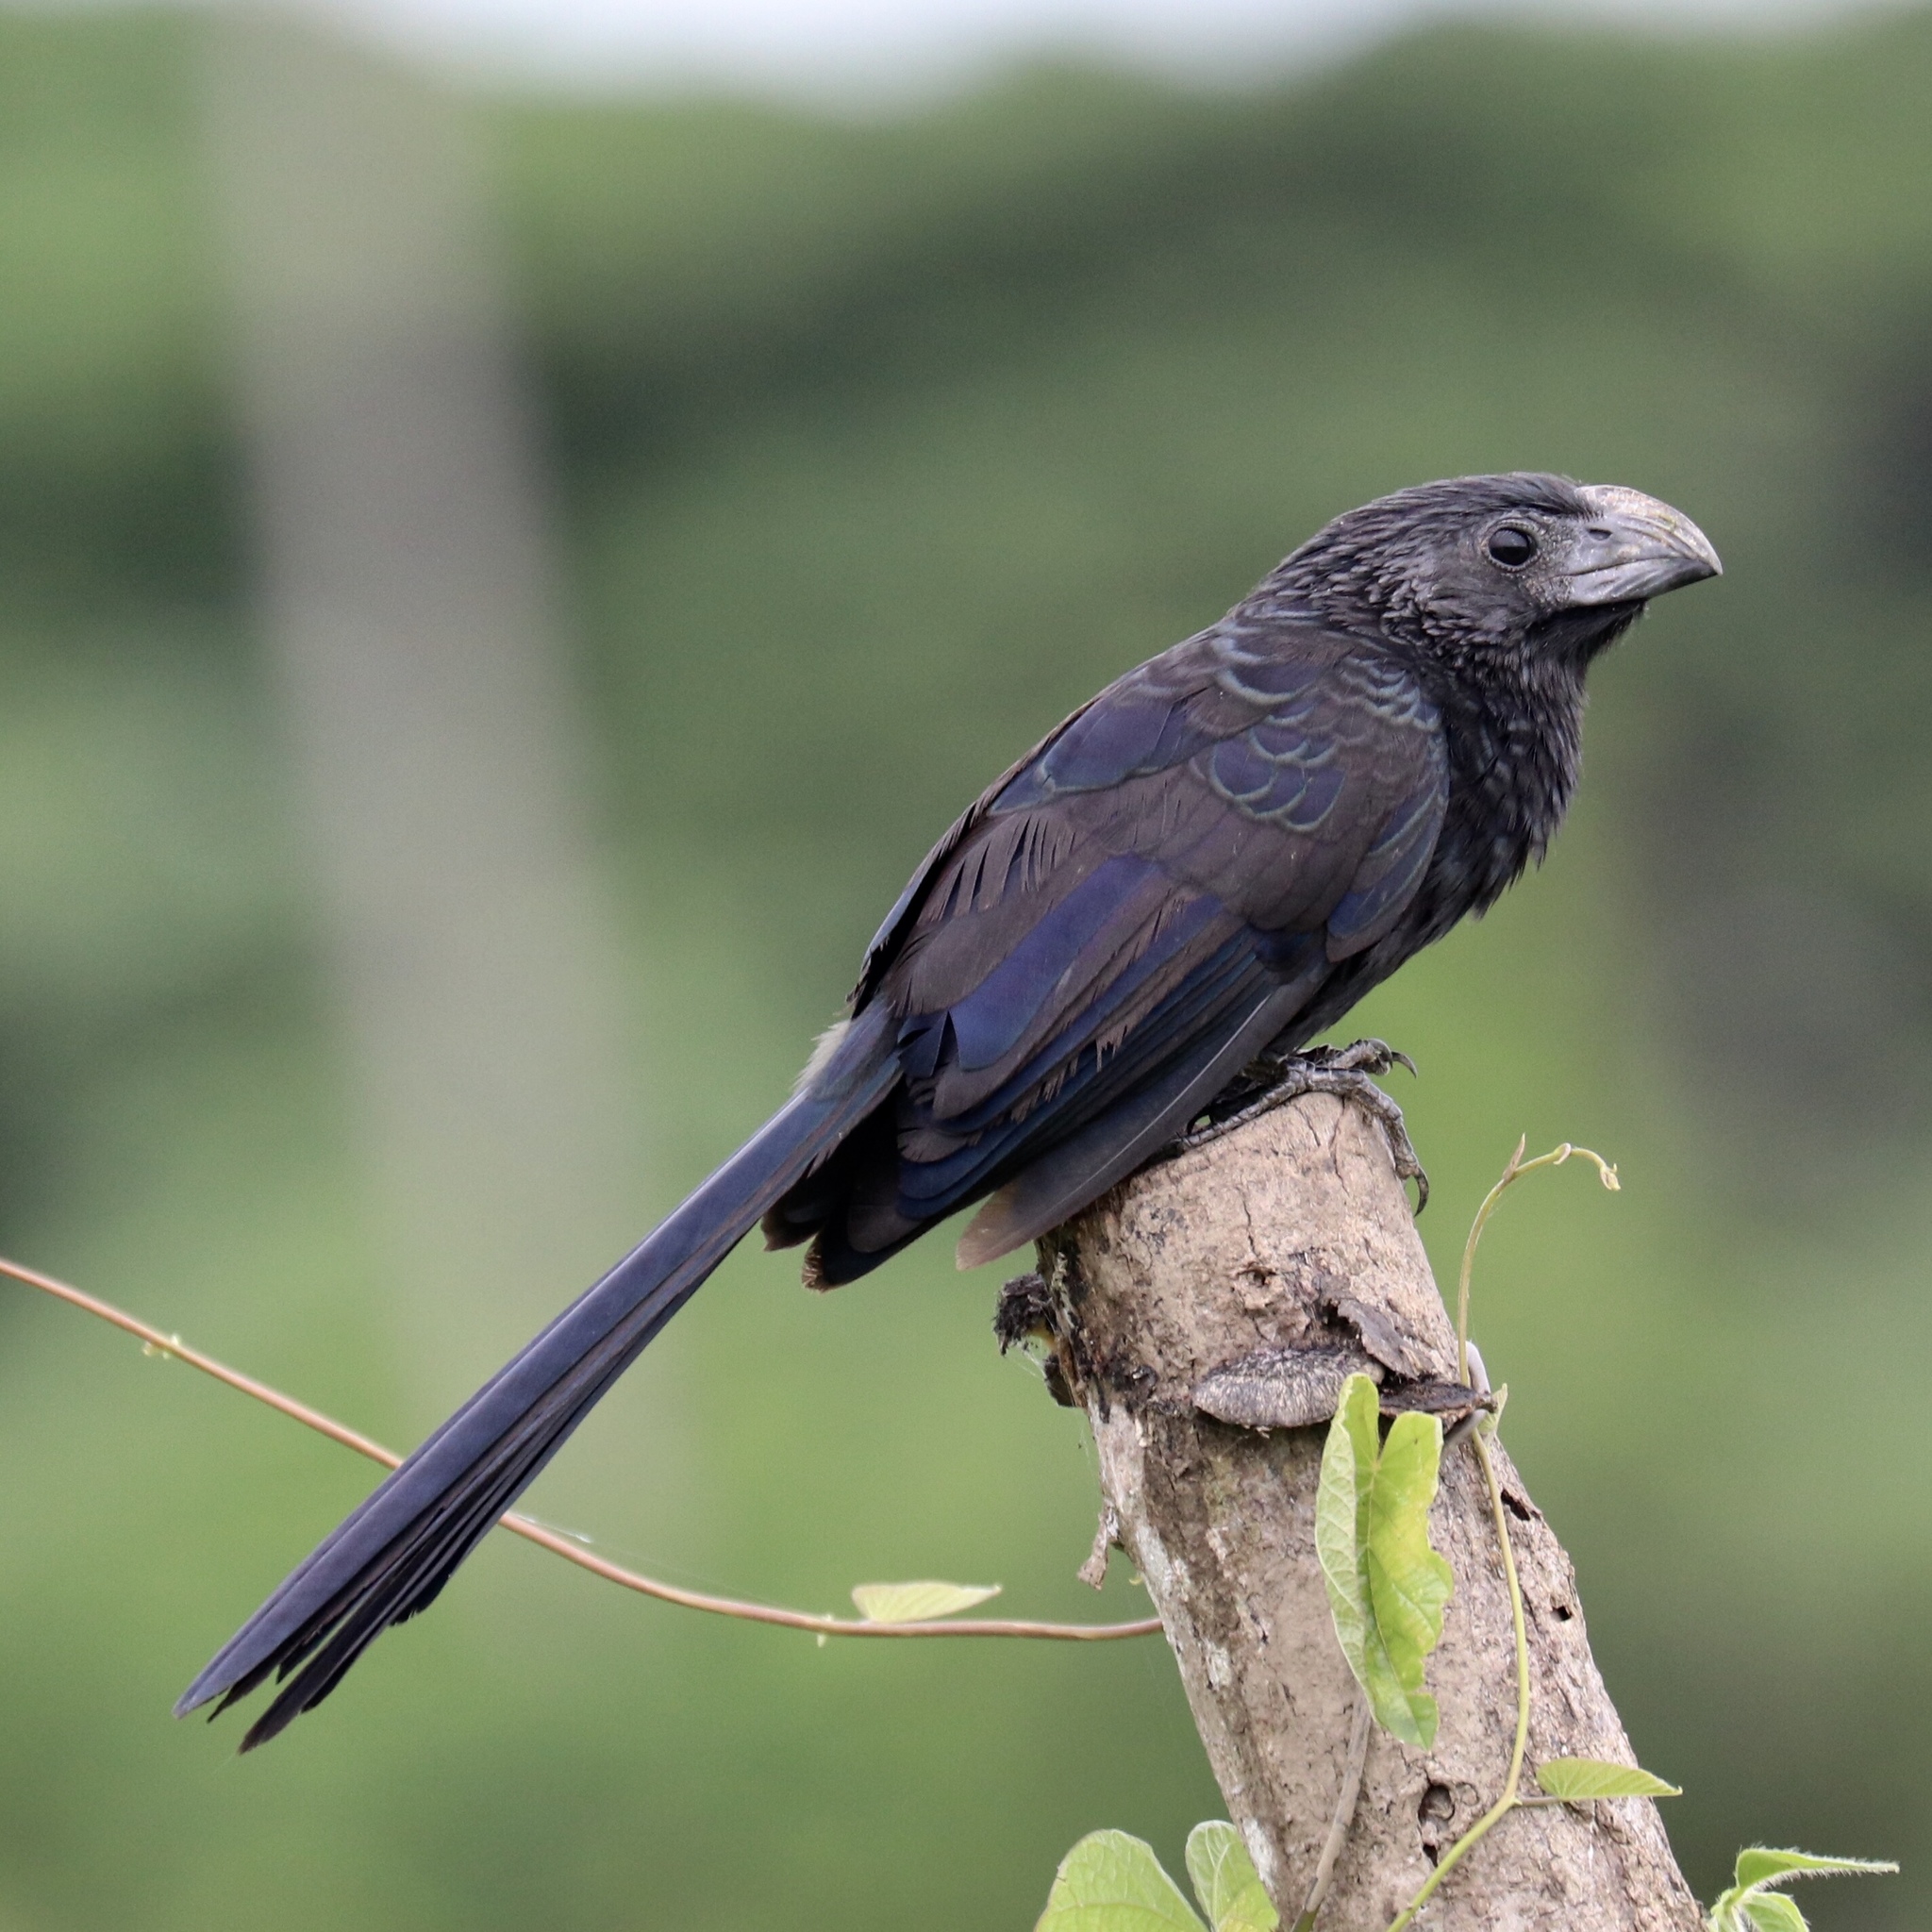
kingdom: Animalia
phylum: Chordata
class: Aves
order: Cuculiformes
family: Cuculidae
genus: Crotophaga
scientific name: Crotophaga sulcirostris
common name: Groove-billed ani
